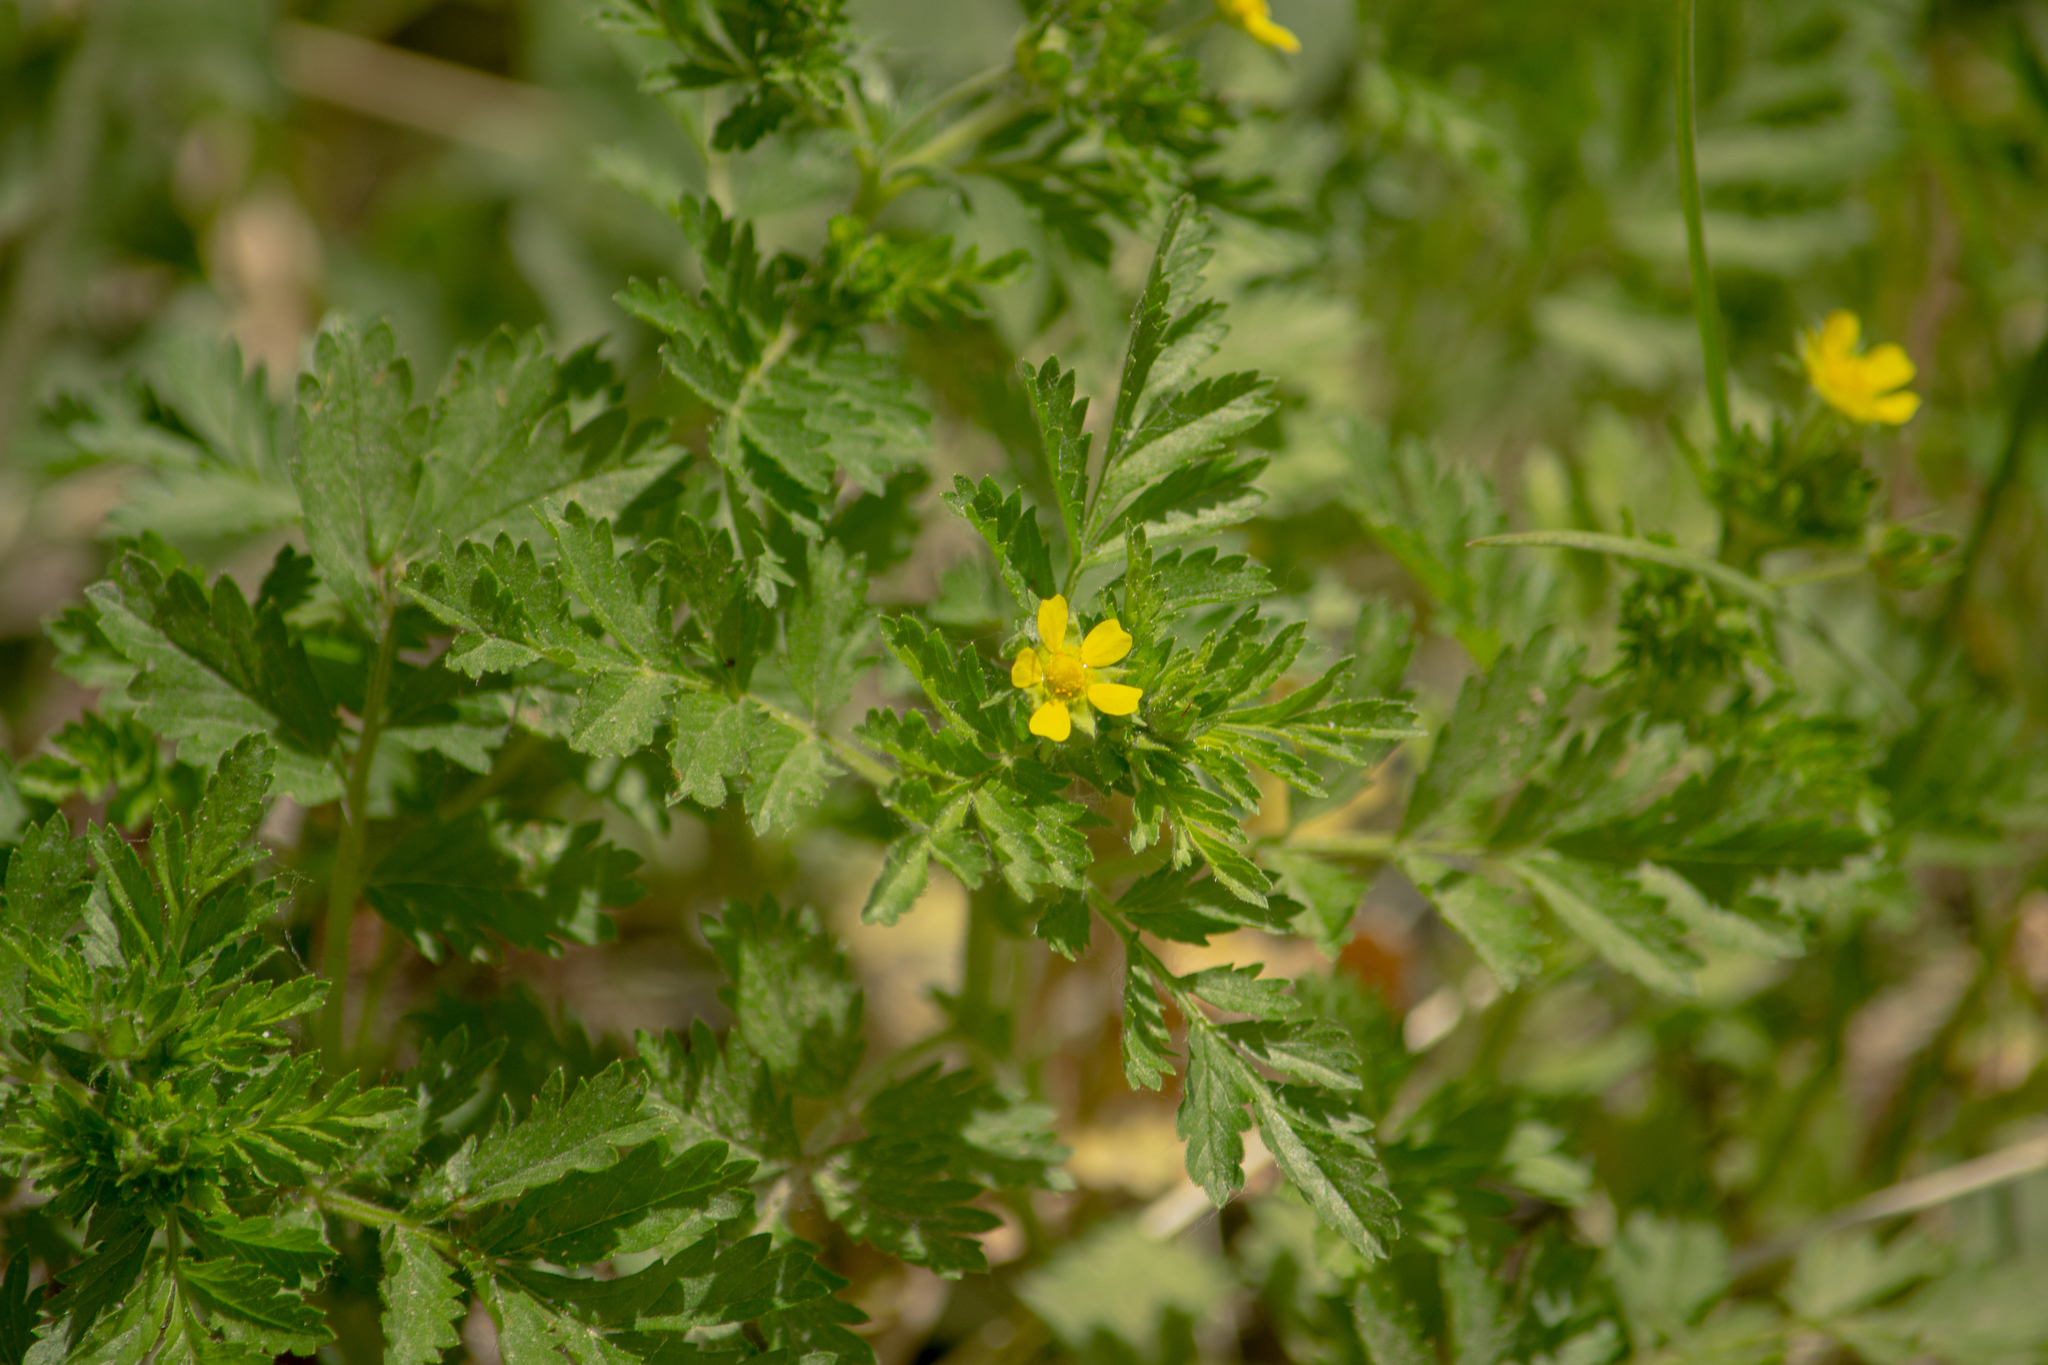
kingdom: Plantae
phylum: Tracheophyta
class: Magnoliopsida
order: Rosales
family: Rosaceae
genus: Potentilla
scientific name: Potentilla supina
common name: Prostrate cinquefoil
